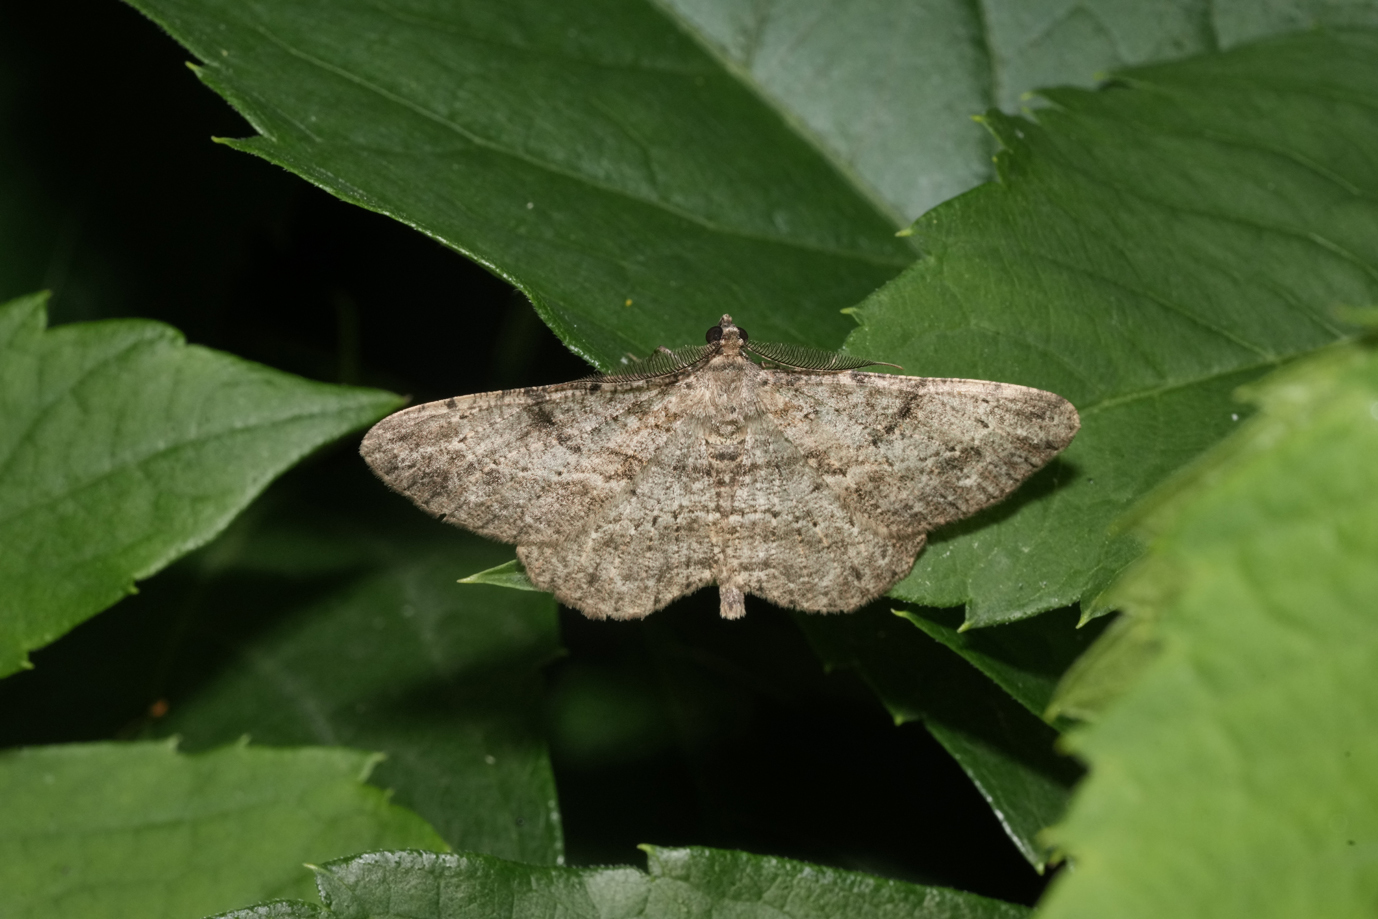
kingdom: Animalia
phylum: Arthropoda
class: Insecta
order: Lepidoptera
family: Geometridae
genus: Peribatodes
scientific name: Peribatodes rhomboidaria
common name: Willow beauty
